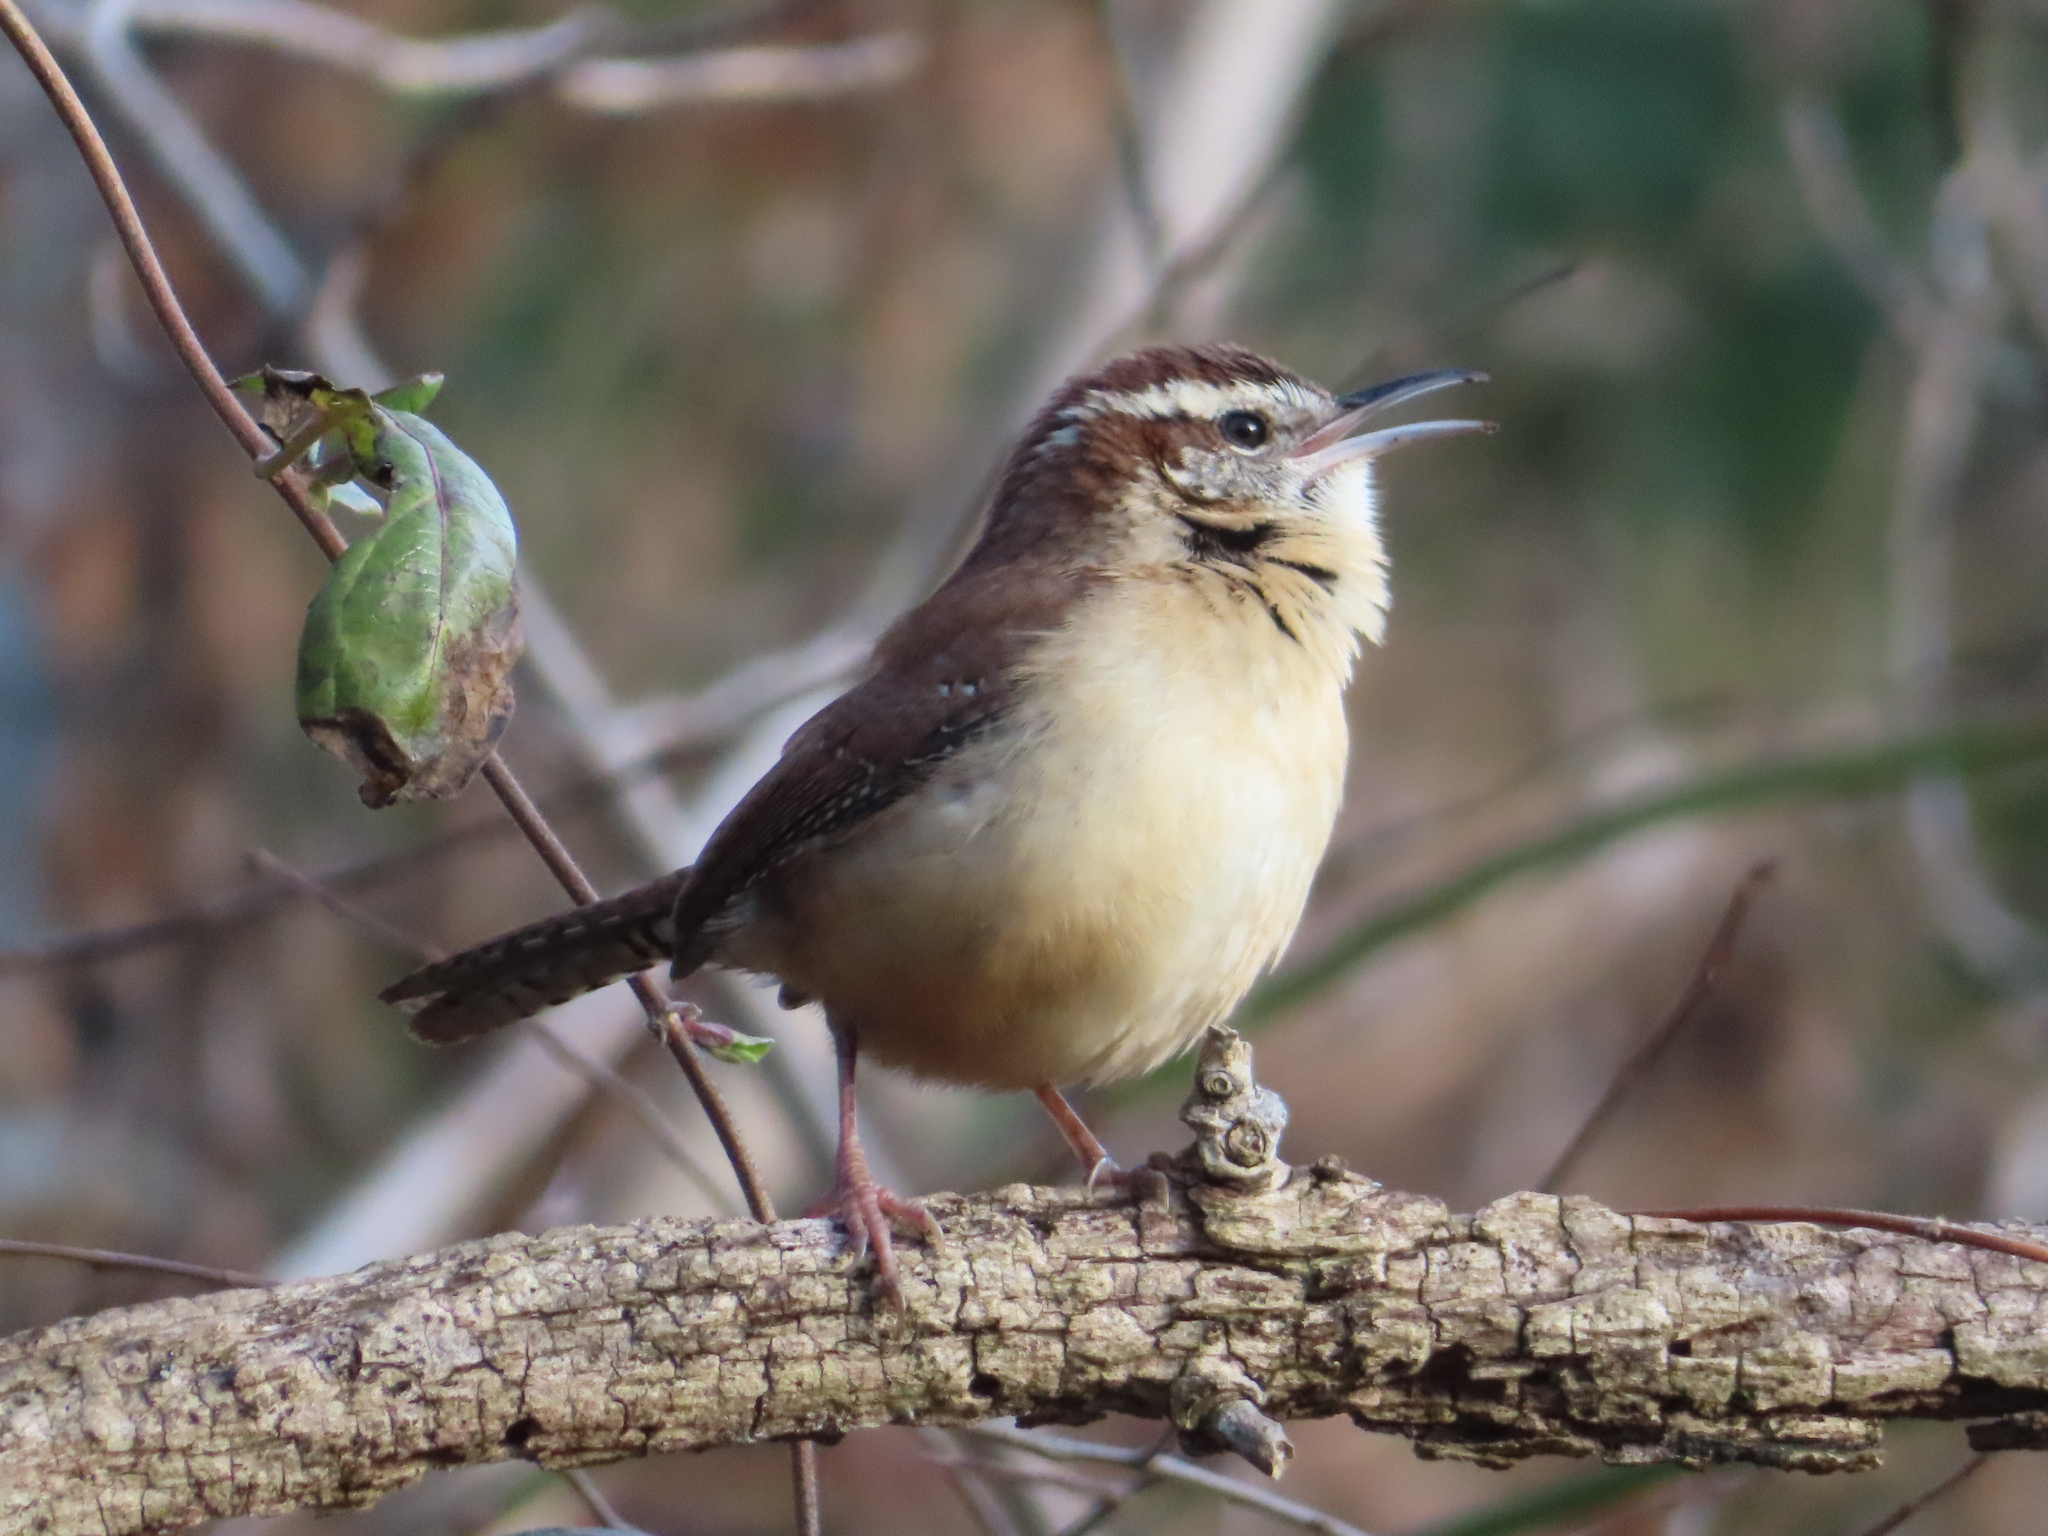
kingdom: Animalia
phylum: Chordata
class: Aves
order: Passeriformes
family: Troglodytidae
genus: Thryothorus
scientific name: Thryothorus ludovicianus
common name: Carolina wren
